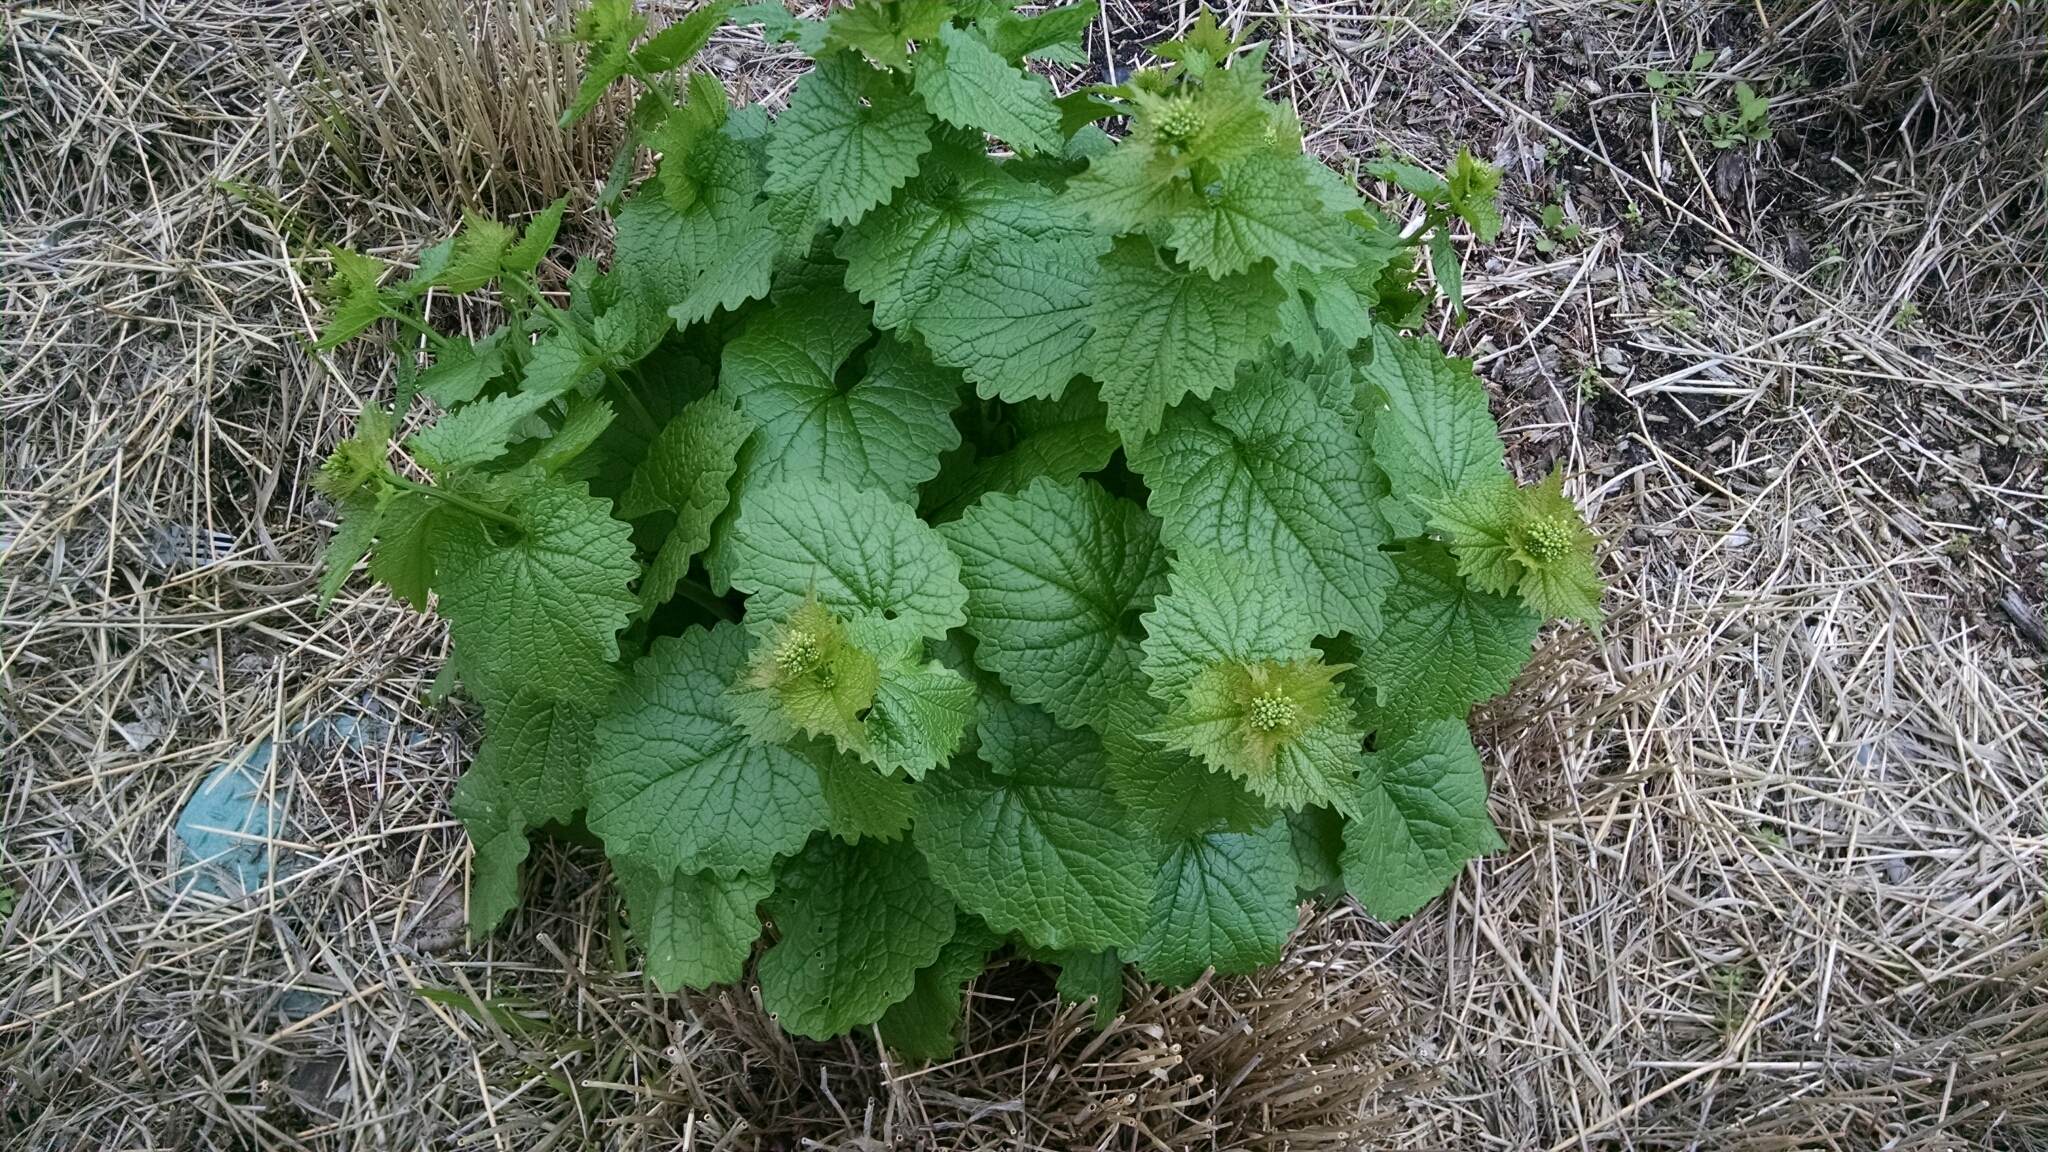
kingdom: Plantae
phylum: Tracheophyta
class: Magnoliopsida
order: Brassicales
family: Brassicaceae
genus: Alliaria
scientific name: Alliaria petiolata
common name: Garlic mustard
